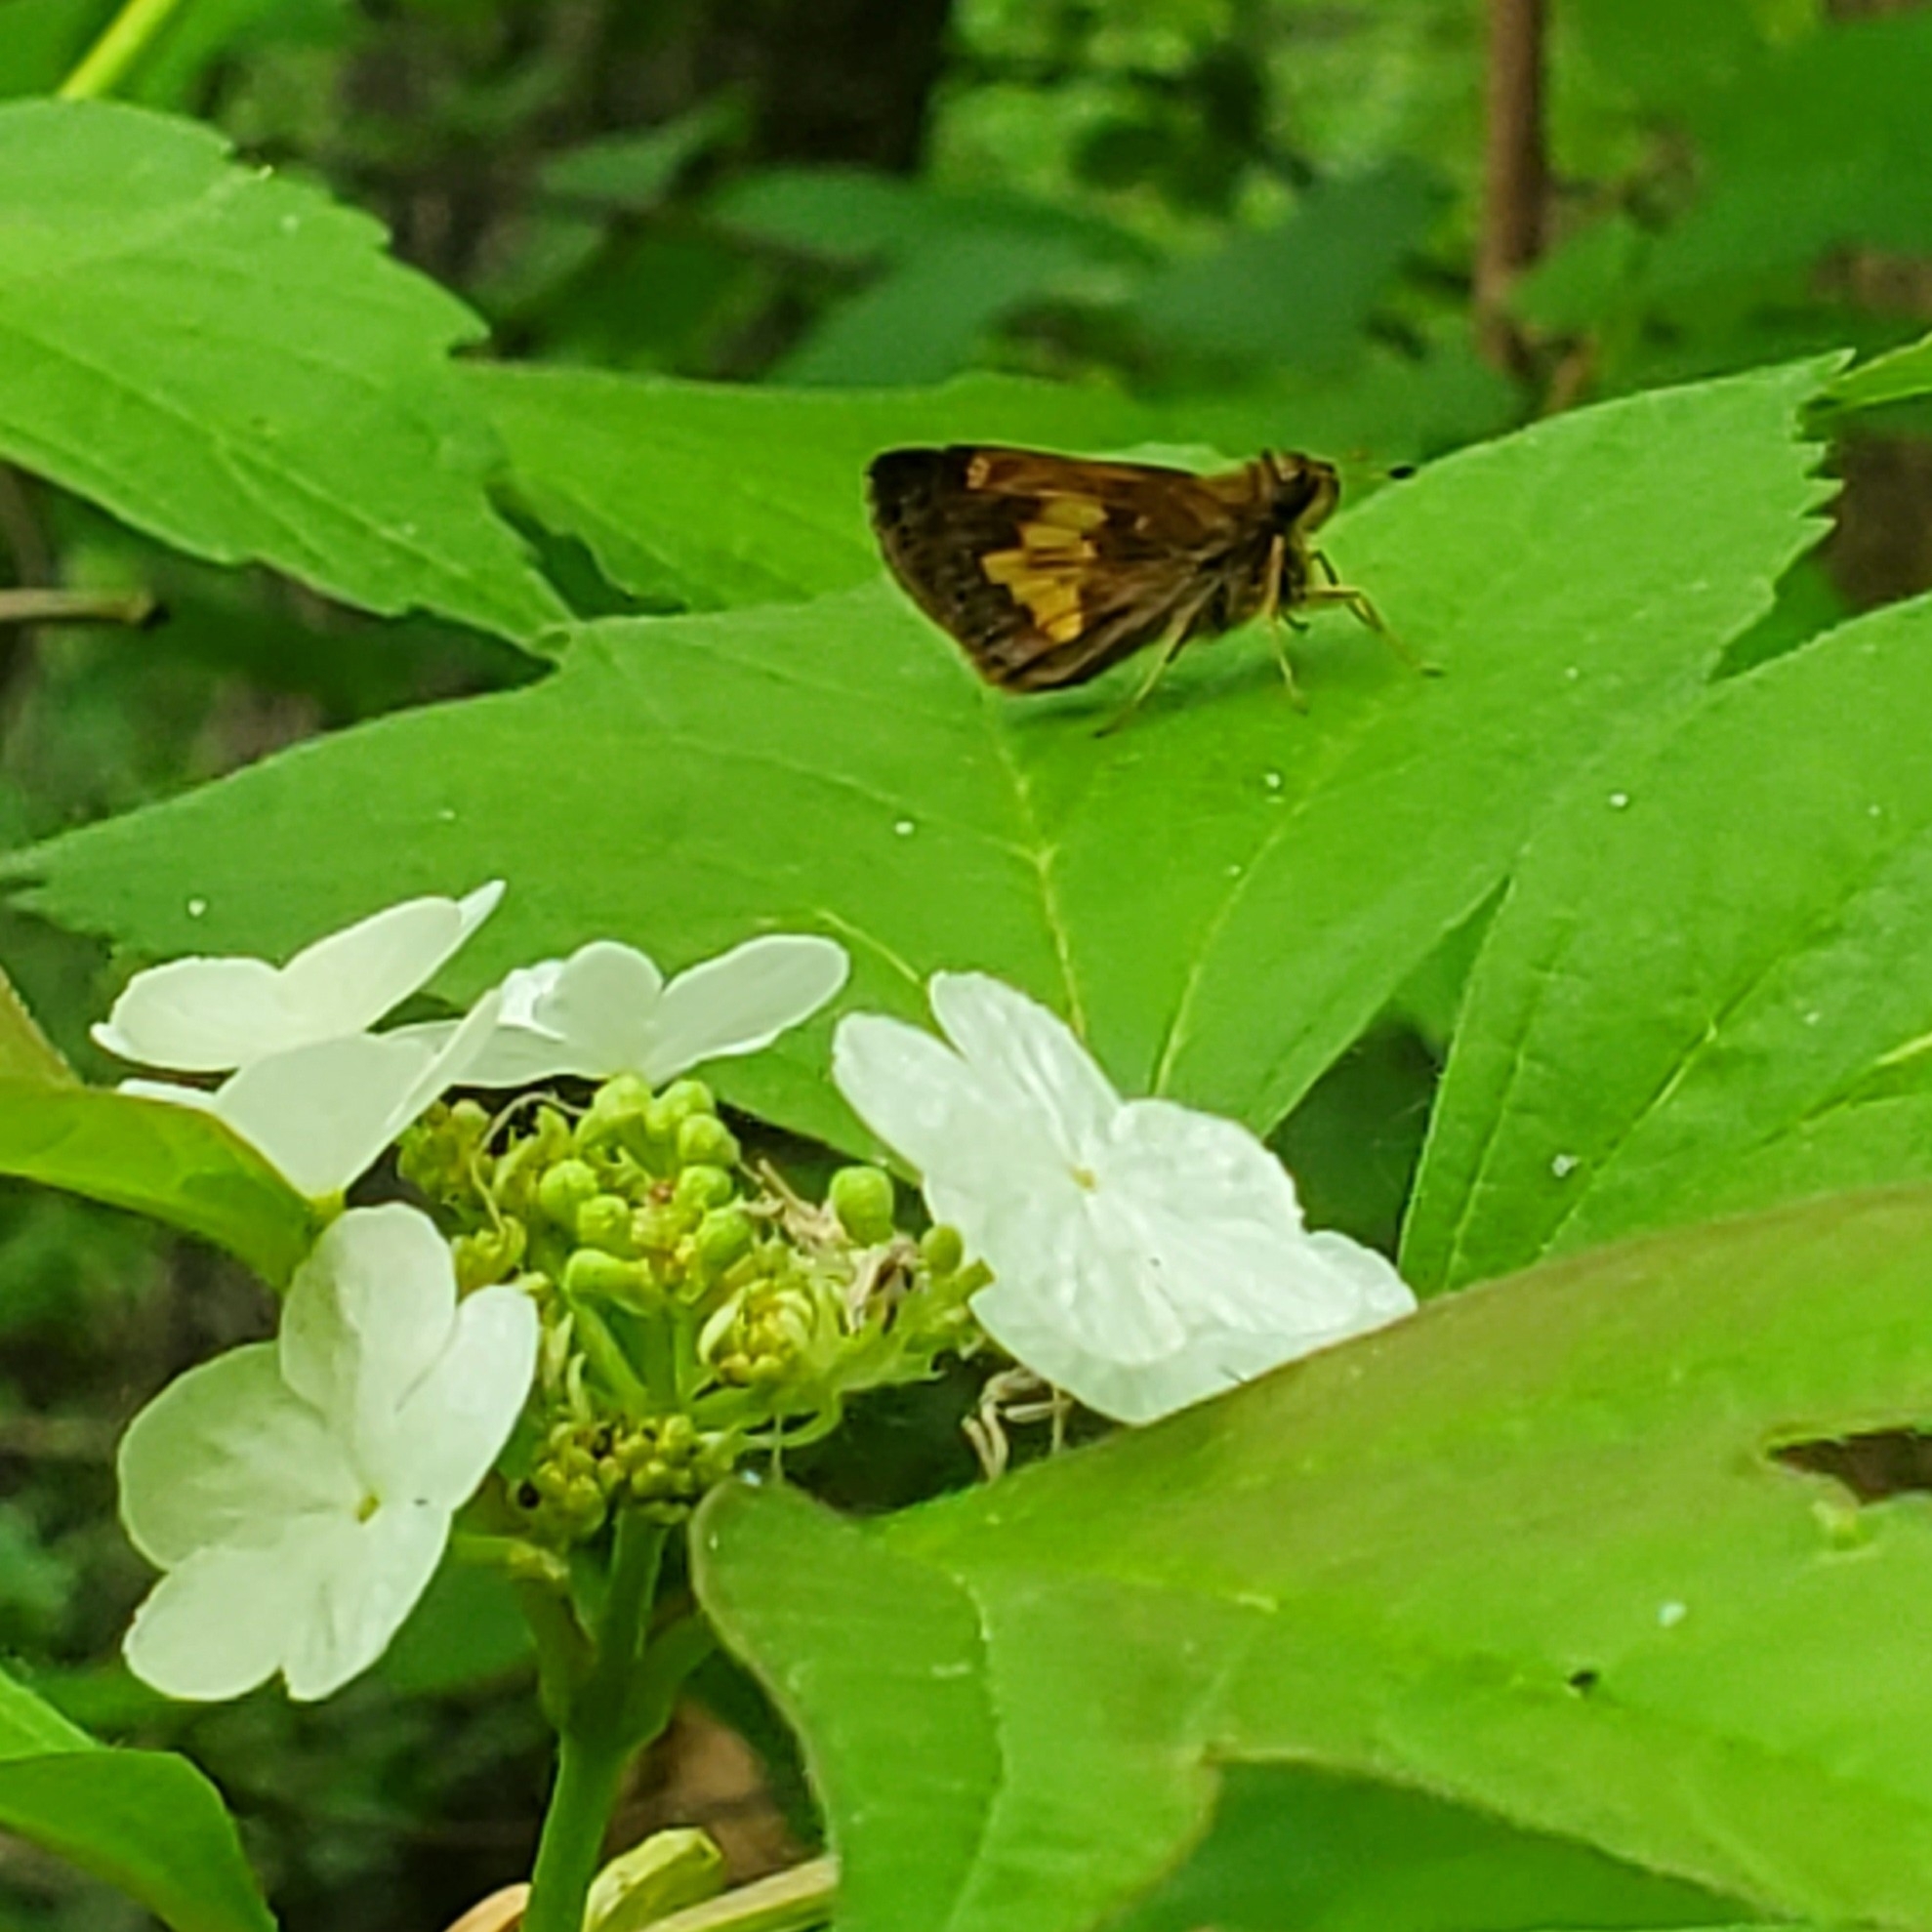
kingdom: Animalia
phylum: Arthropoda
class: Insecta
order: Lepidoptera
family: Hesperiidae
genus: Lon
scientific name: Lon hobomok
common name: Hobomok skipper
